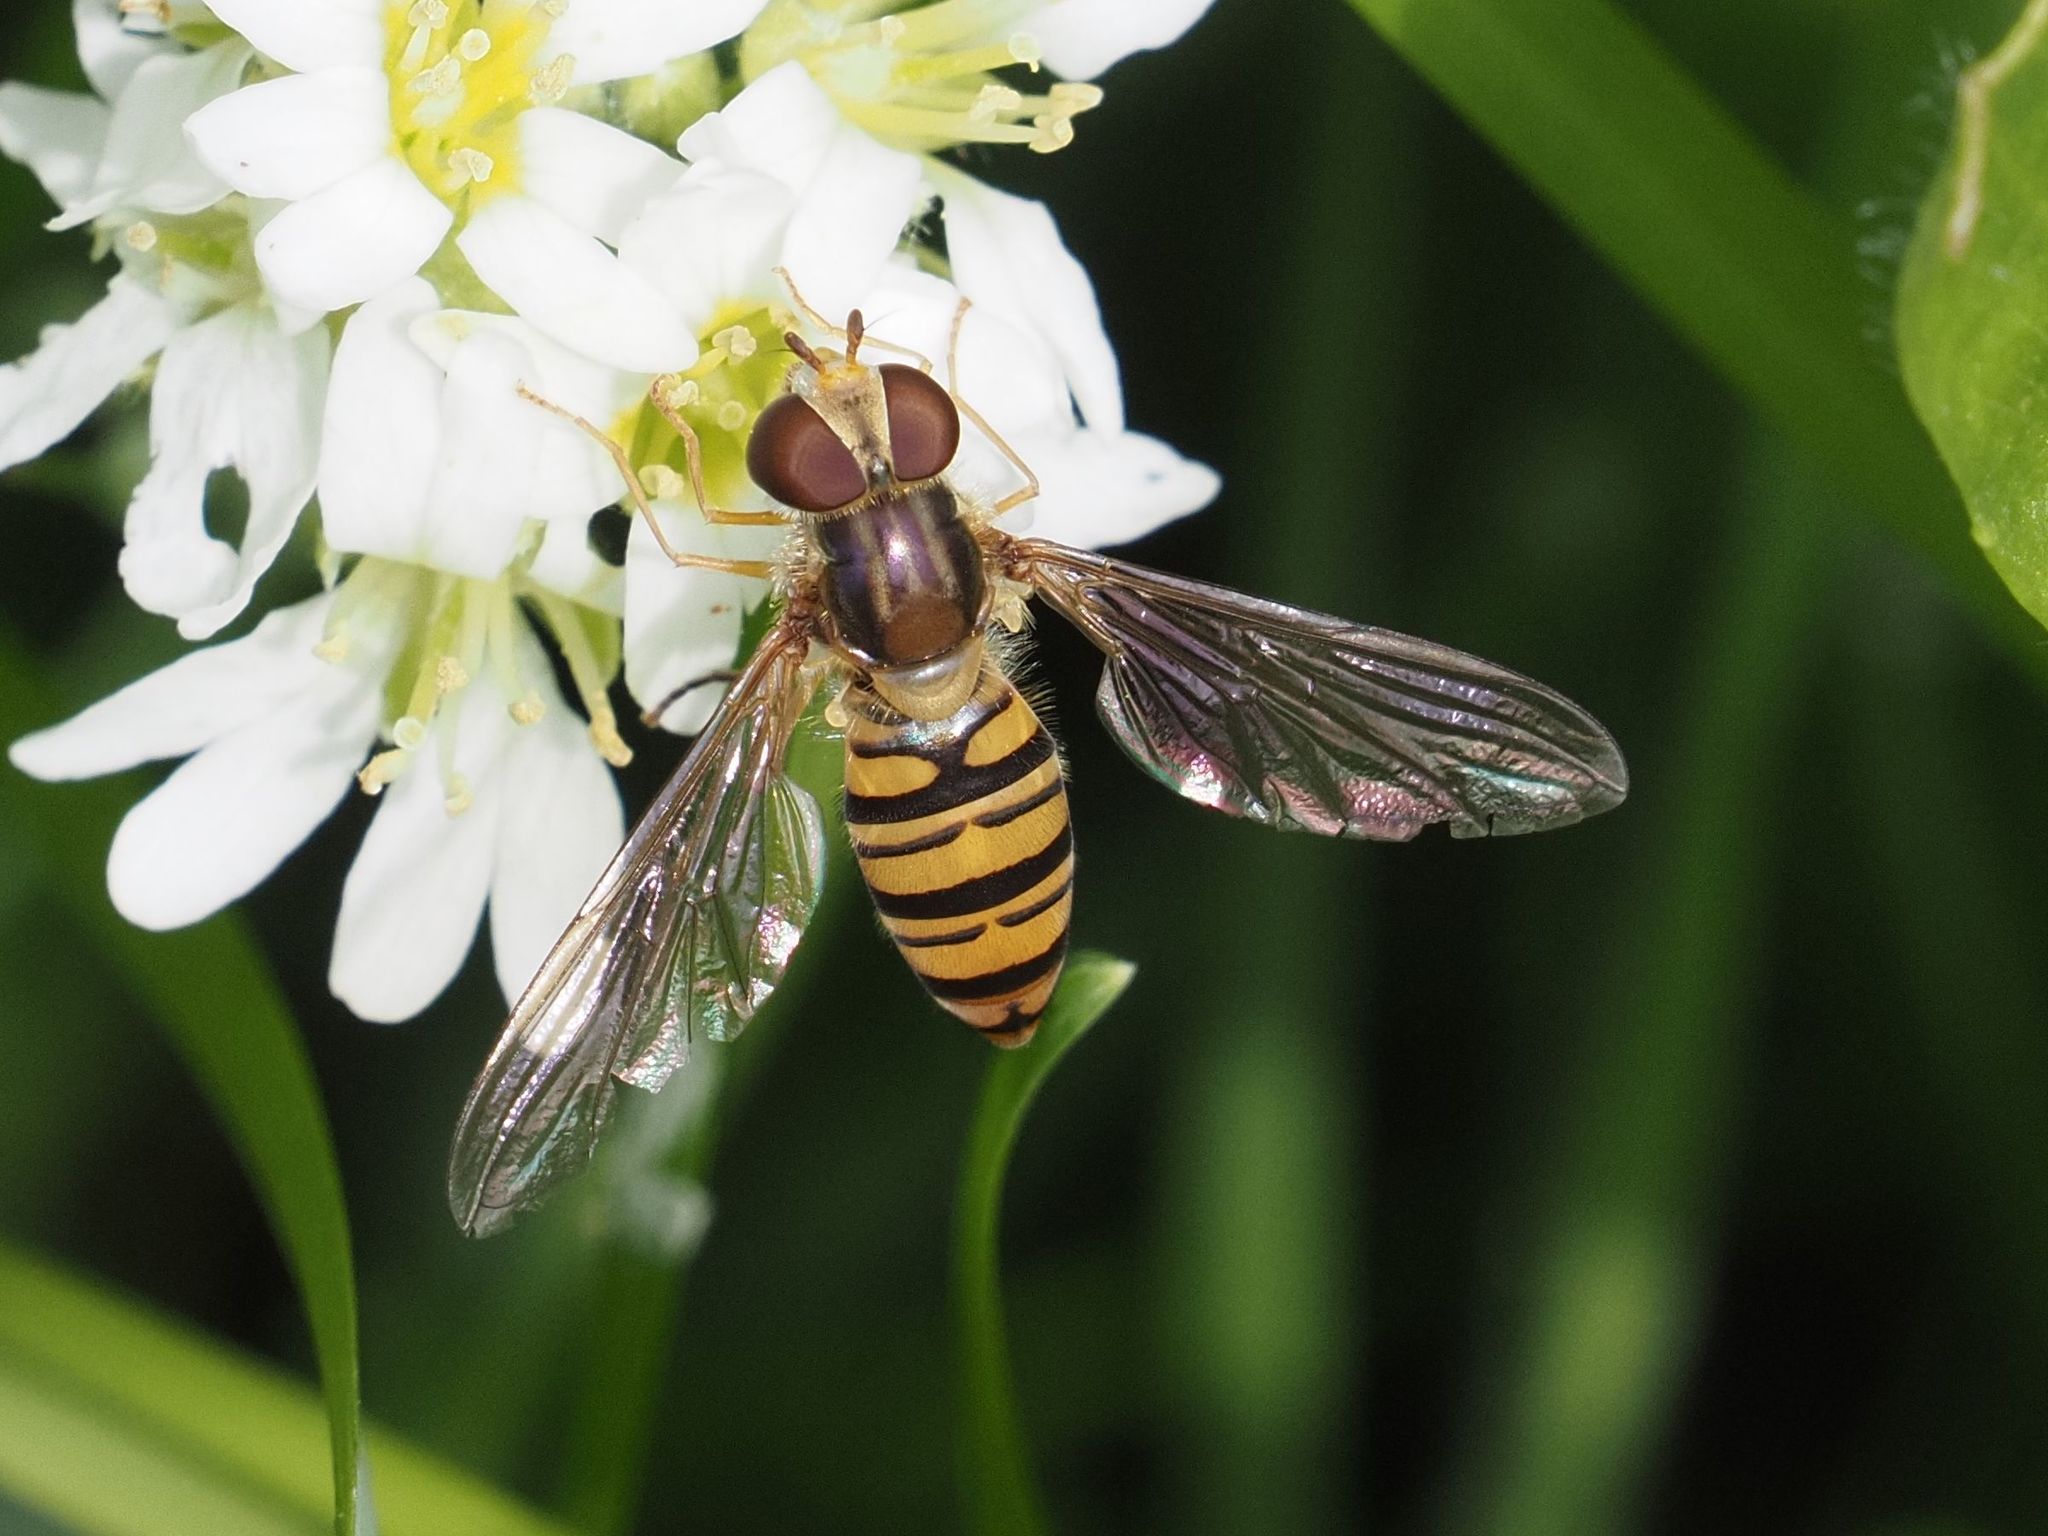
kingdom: Animalia
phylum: Arthropoda
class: Insecta
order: Diptera
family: Syrphidae
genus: Episyrphus
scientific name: Episyrphus balteatus
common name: Marmalade hoverfly
